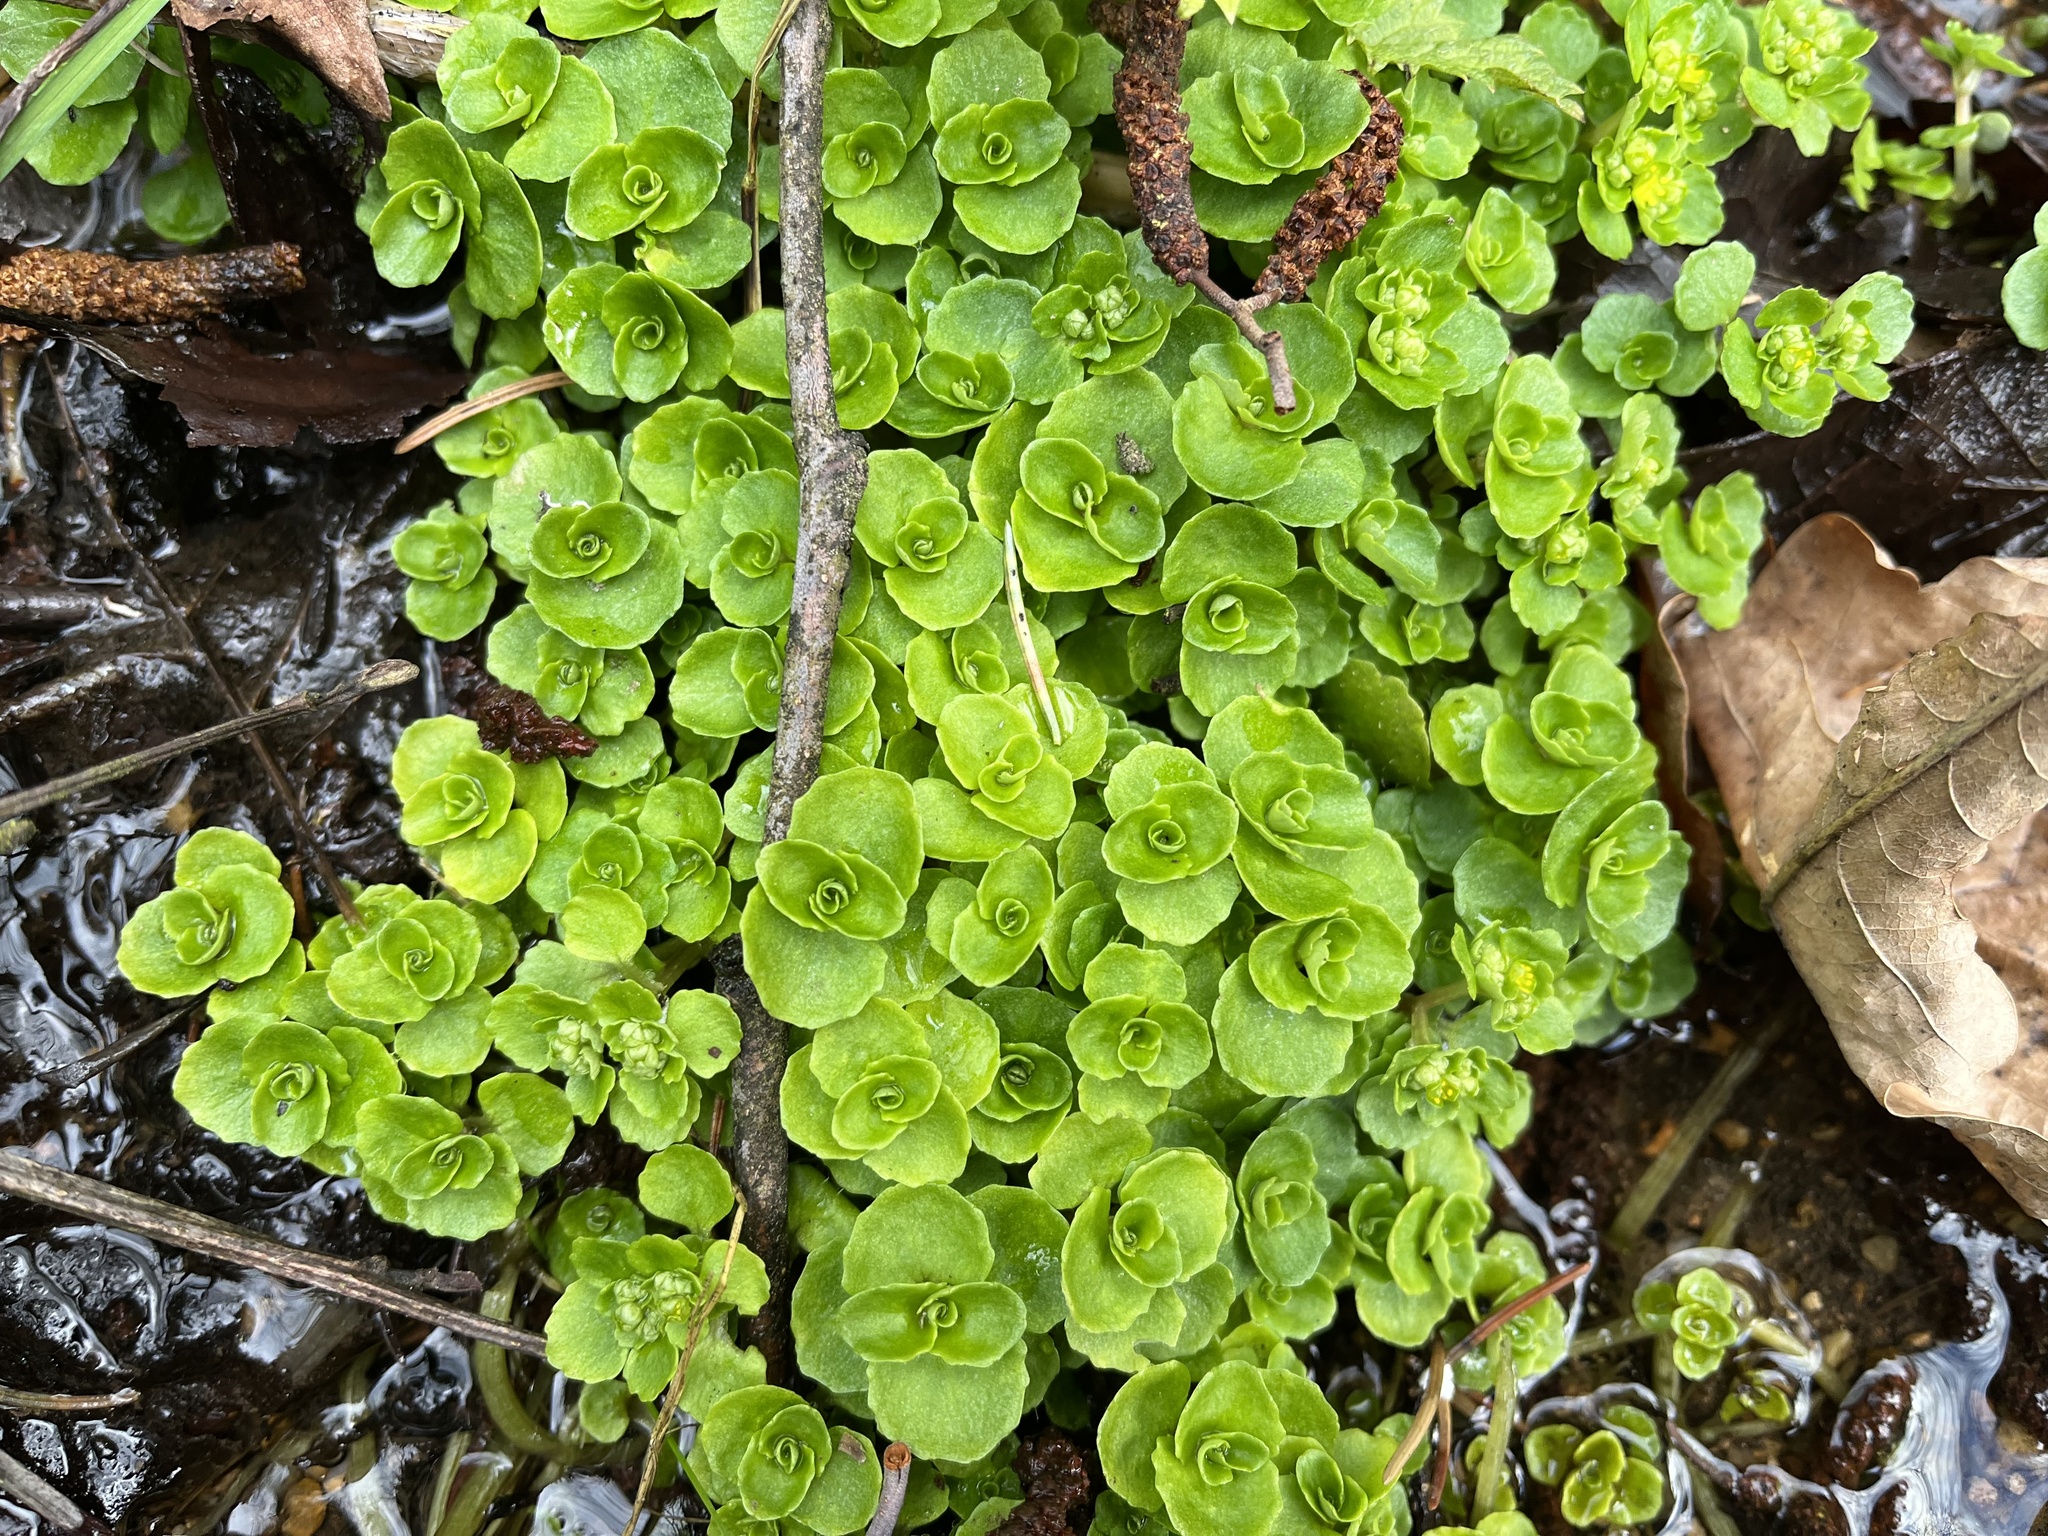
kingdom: Plantae
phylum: Tracheophyta
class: Magnoliopsida
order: Saxifragales
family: Saxifragaceae
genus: Chrysosplenium
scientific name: Chrysosplenium oppositifolium
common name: Opposite-leaved golden-saxifrage
